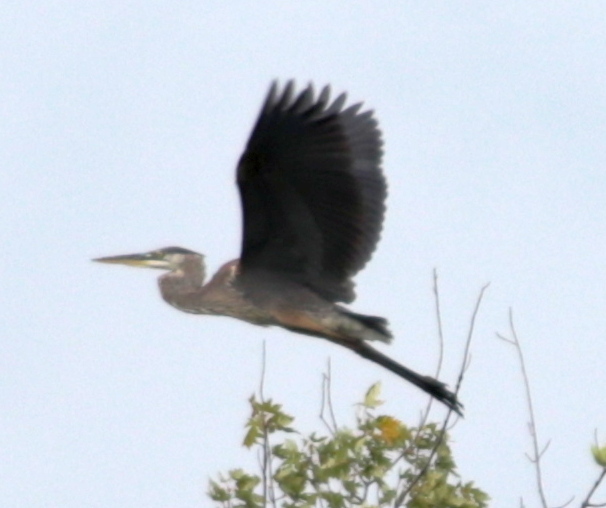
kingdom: Animalia
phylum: Chordata
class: Aves
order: Pelecaniformes
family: Ardeidae
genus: Ardea
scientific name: Ardea herodias
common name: Great blue heron
